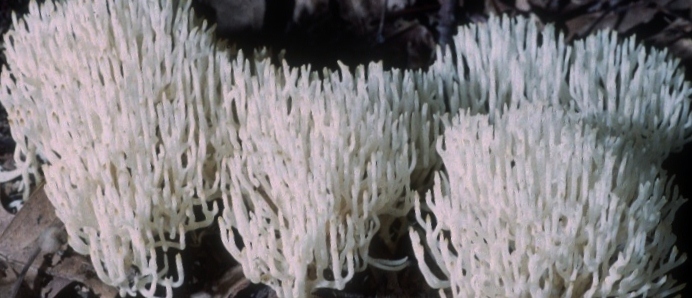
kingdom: Fungi
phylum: Basidiomycota
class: Agaricomycetes
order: Agaricales
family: Clavariaceae
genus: Ramariopsis
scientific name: Ramariopsis kunzei
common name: Ivory coral
